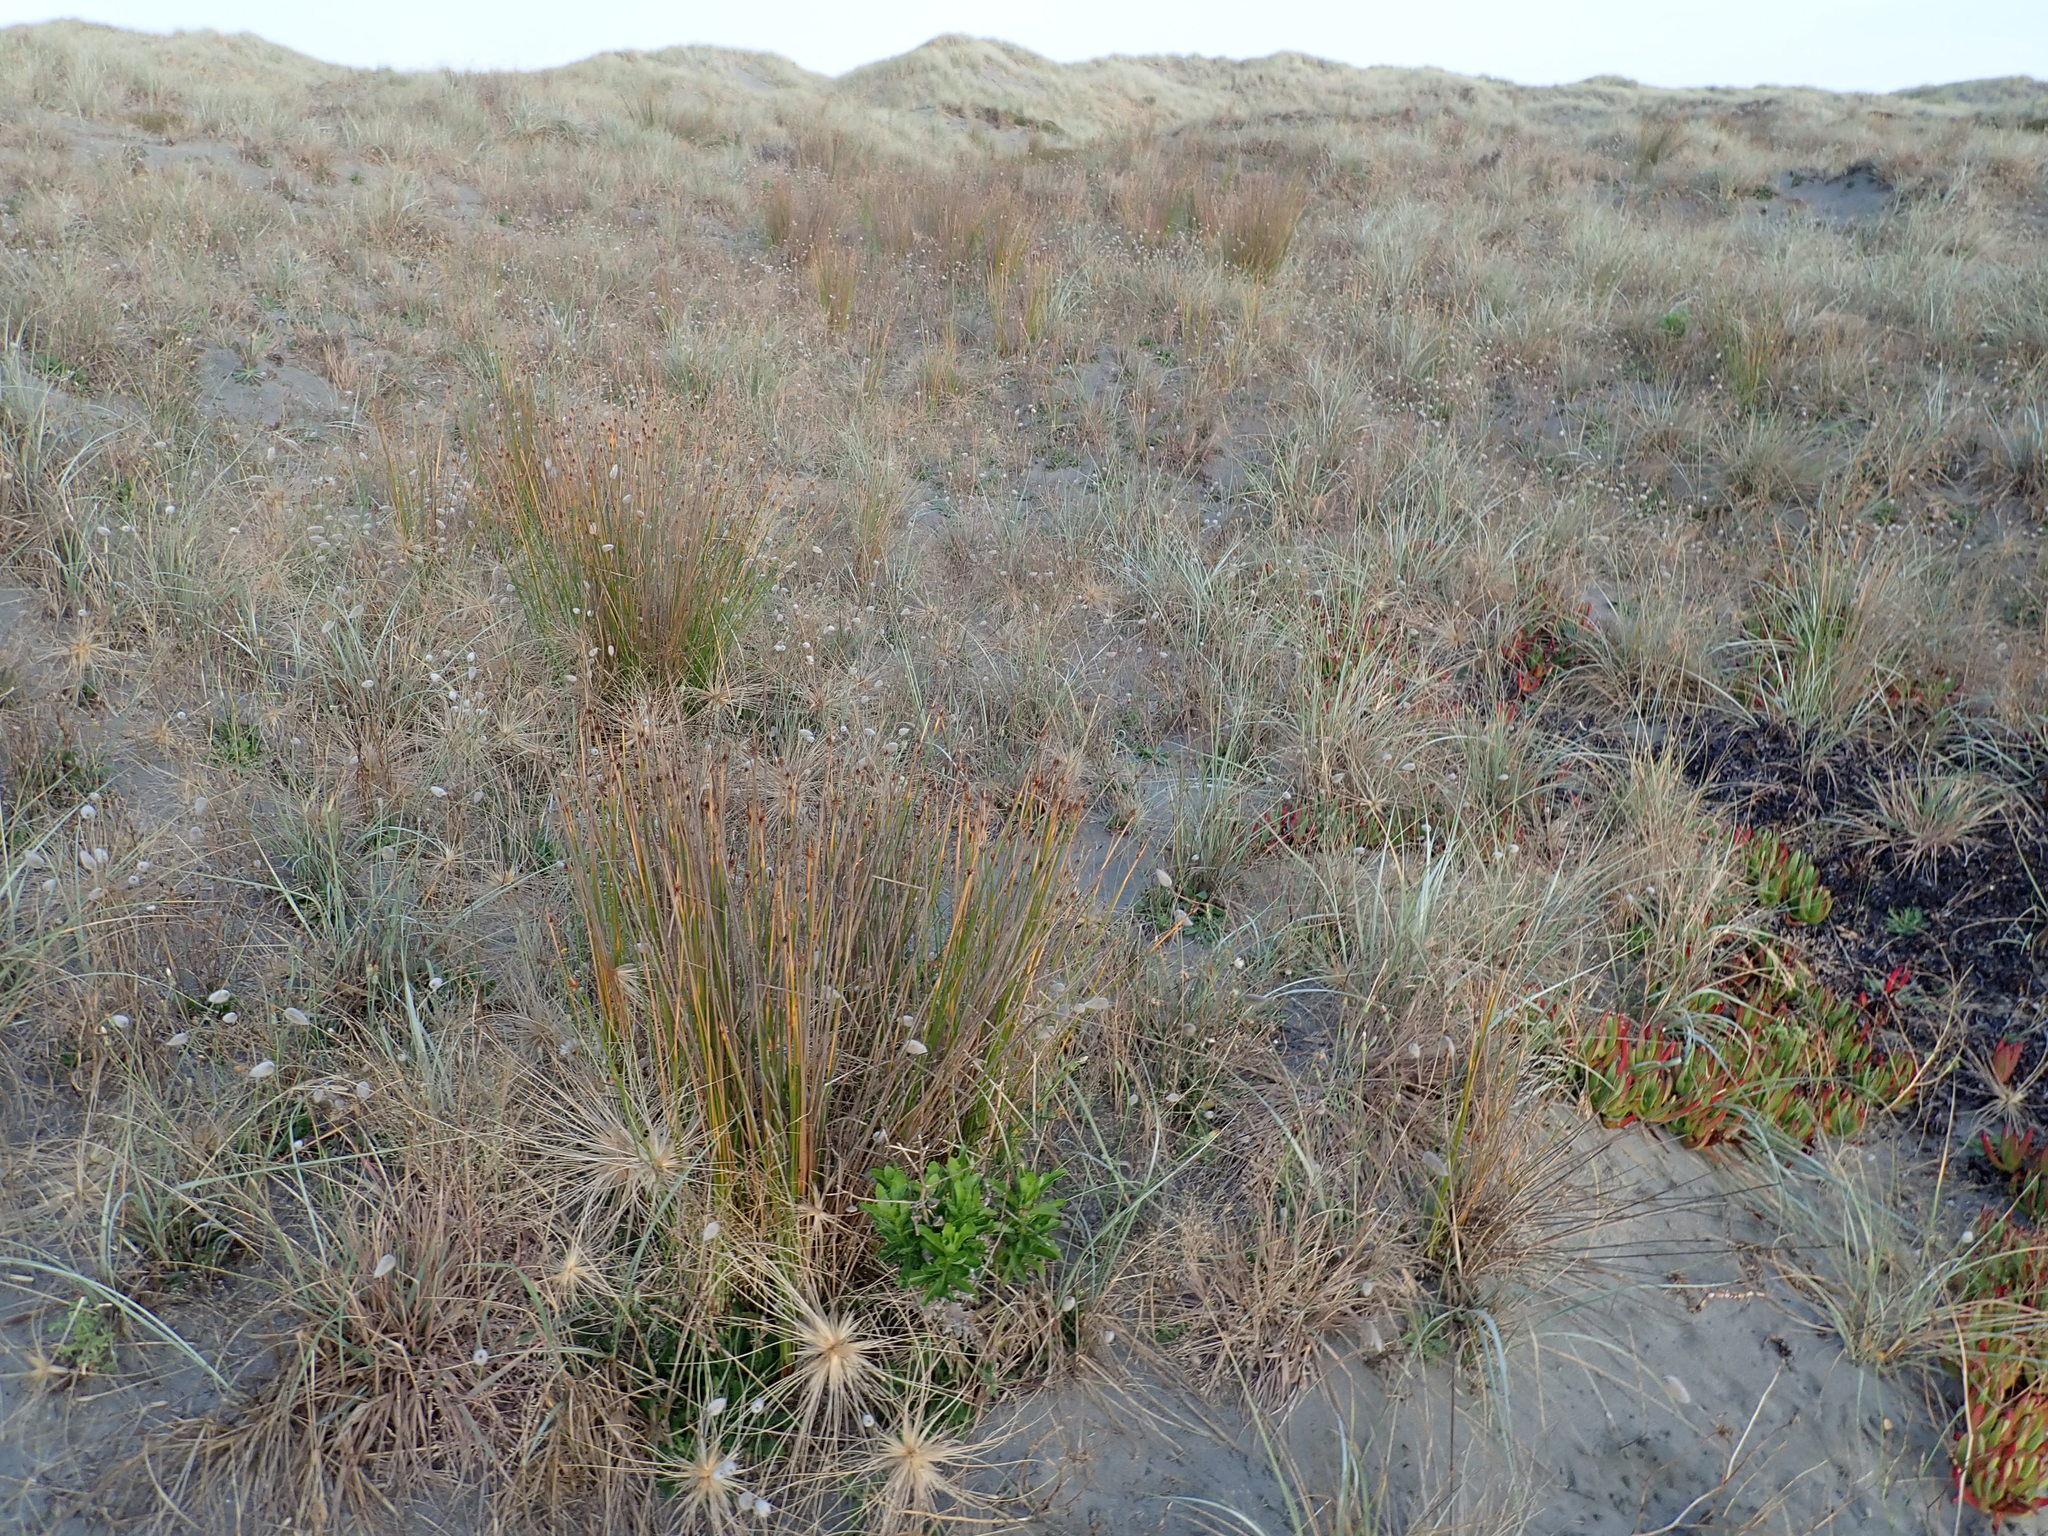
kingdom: Plantae
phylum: Tracheophyta
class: Liliopsida
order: Poales
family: Cyperaceae
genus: Ficinia
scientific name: Ficinia nodosa
